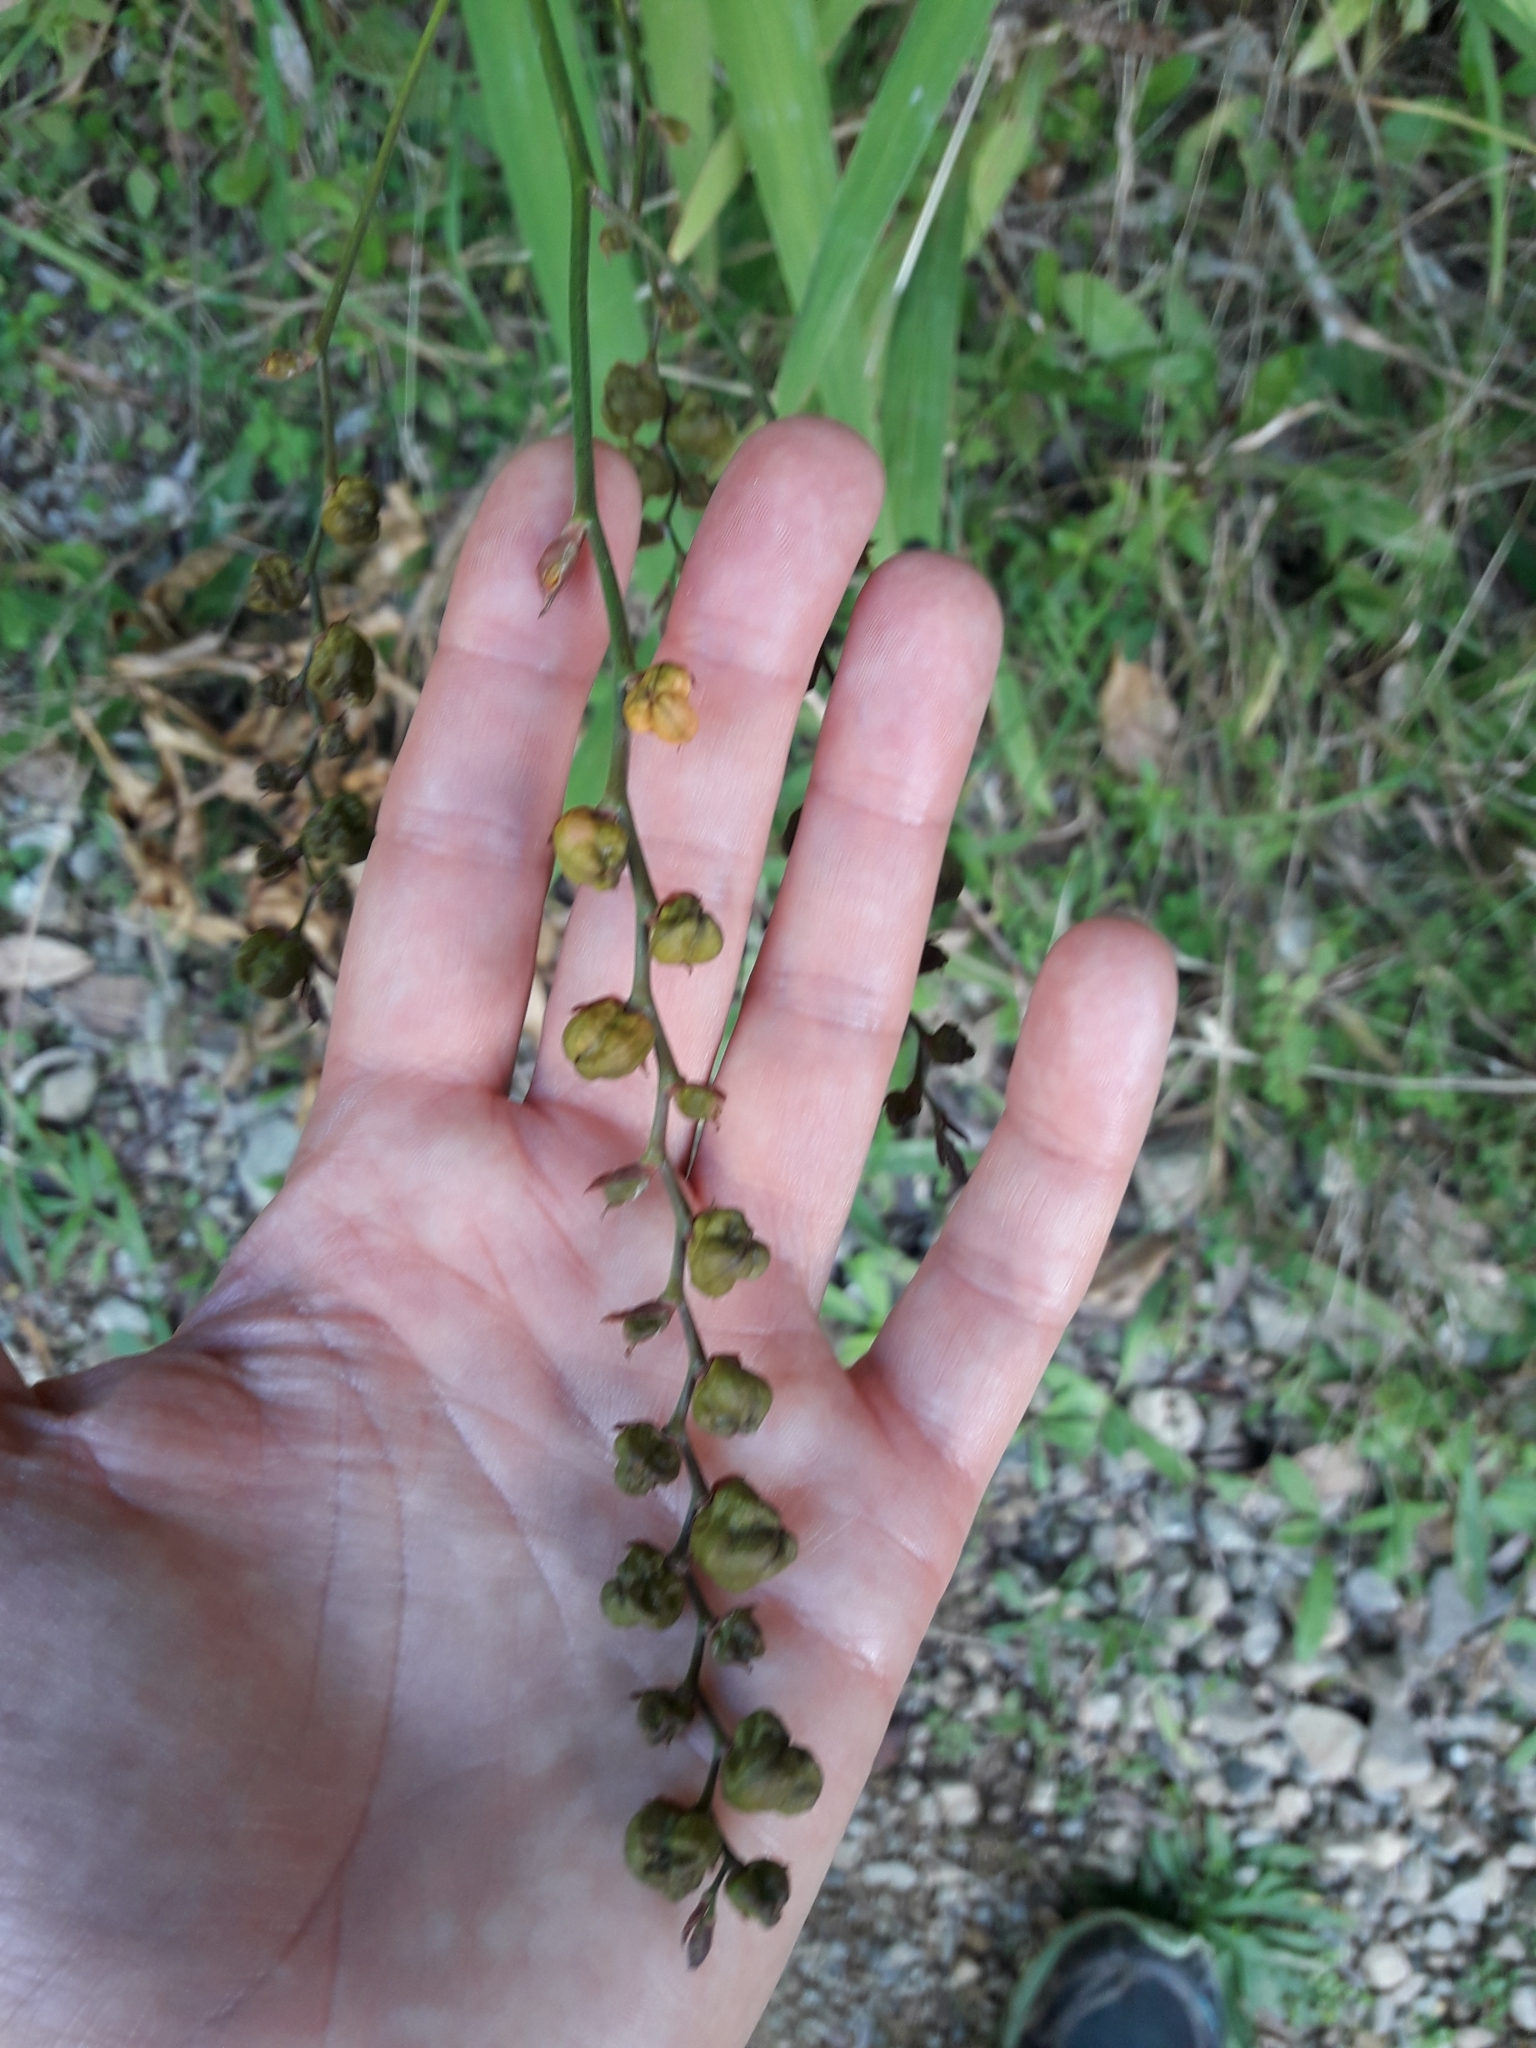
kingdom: Plantae
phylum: Tracheophyta
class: Liliopsida
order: Asparagales
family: Iridaceae
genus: Crocosmia
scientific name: Crocosmia crocosmiiflora
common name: Montbretia
